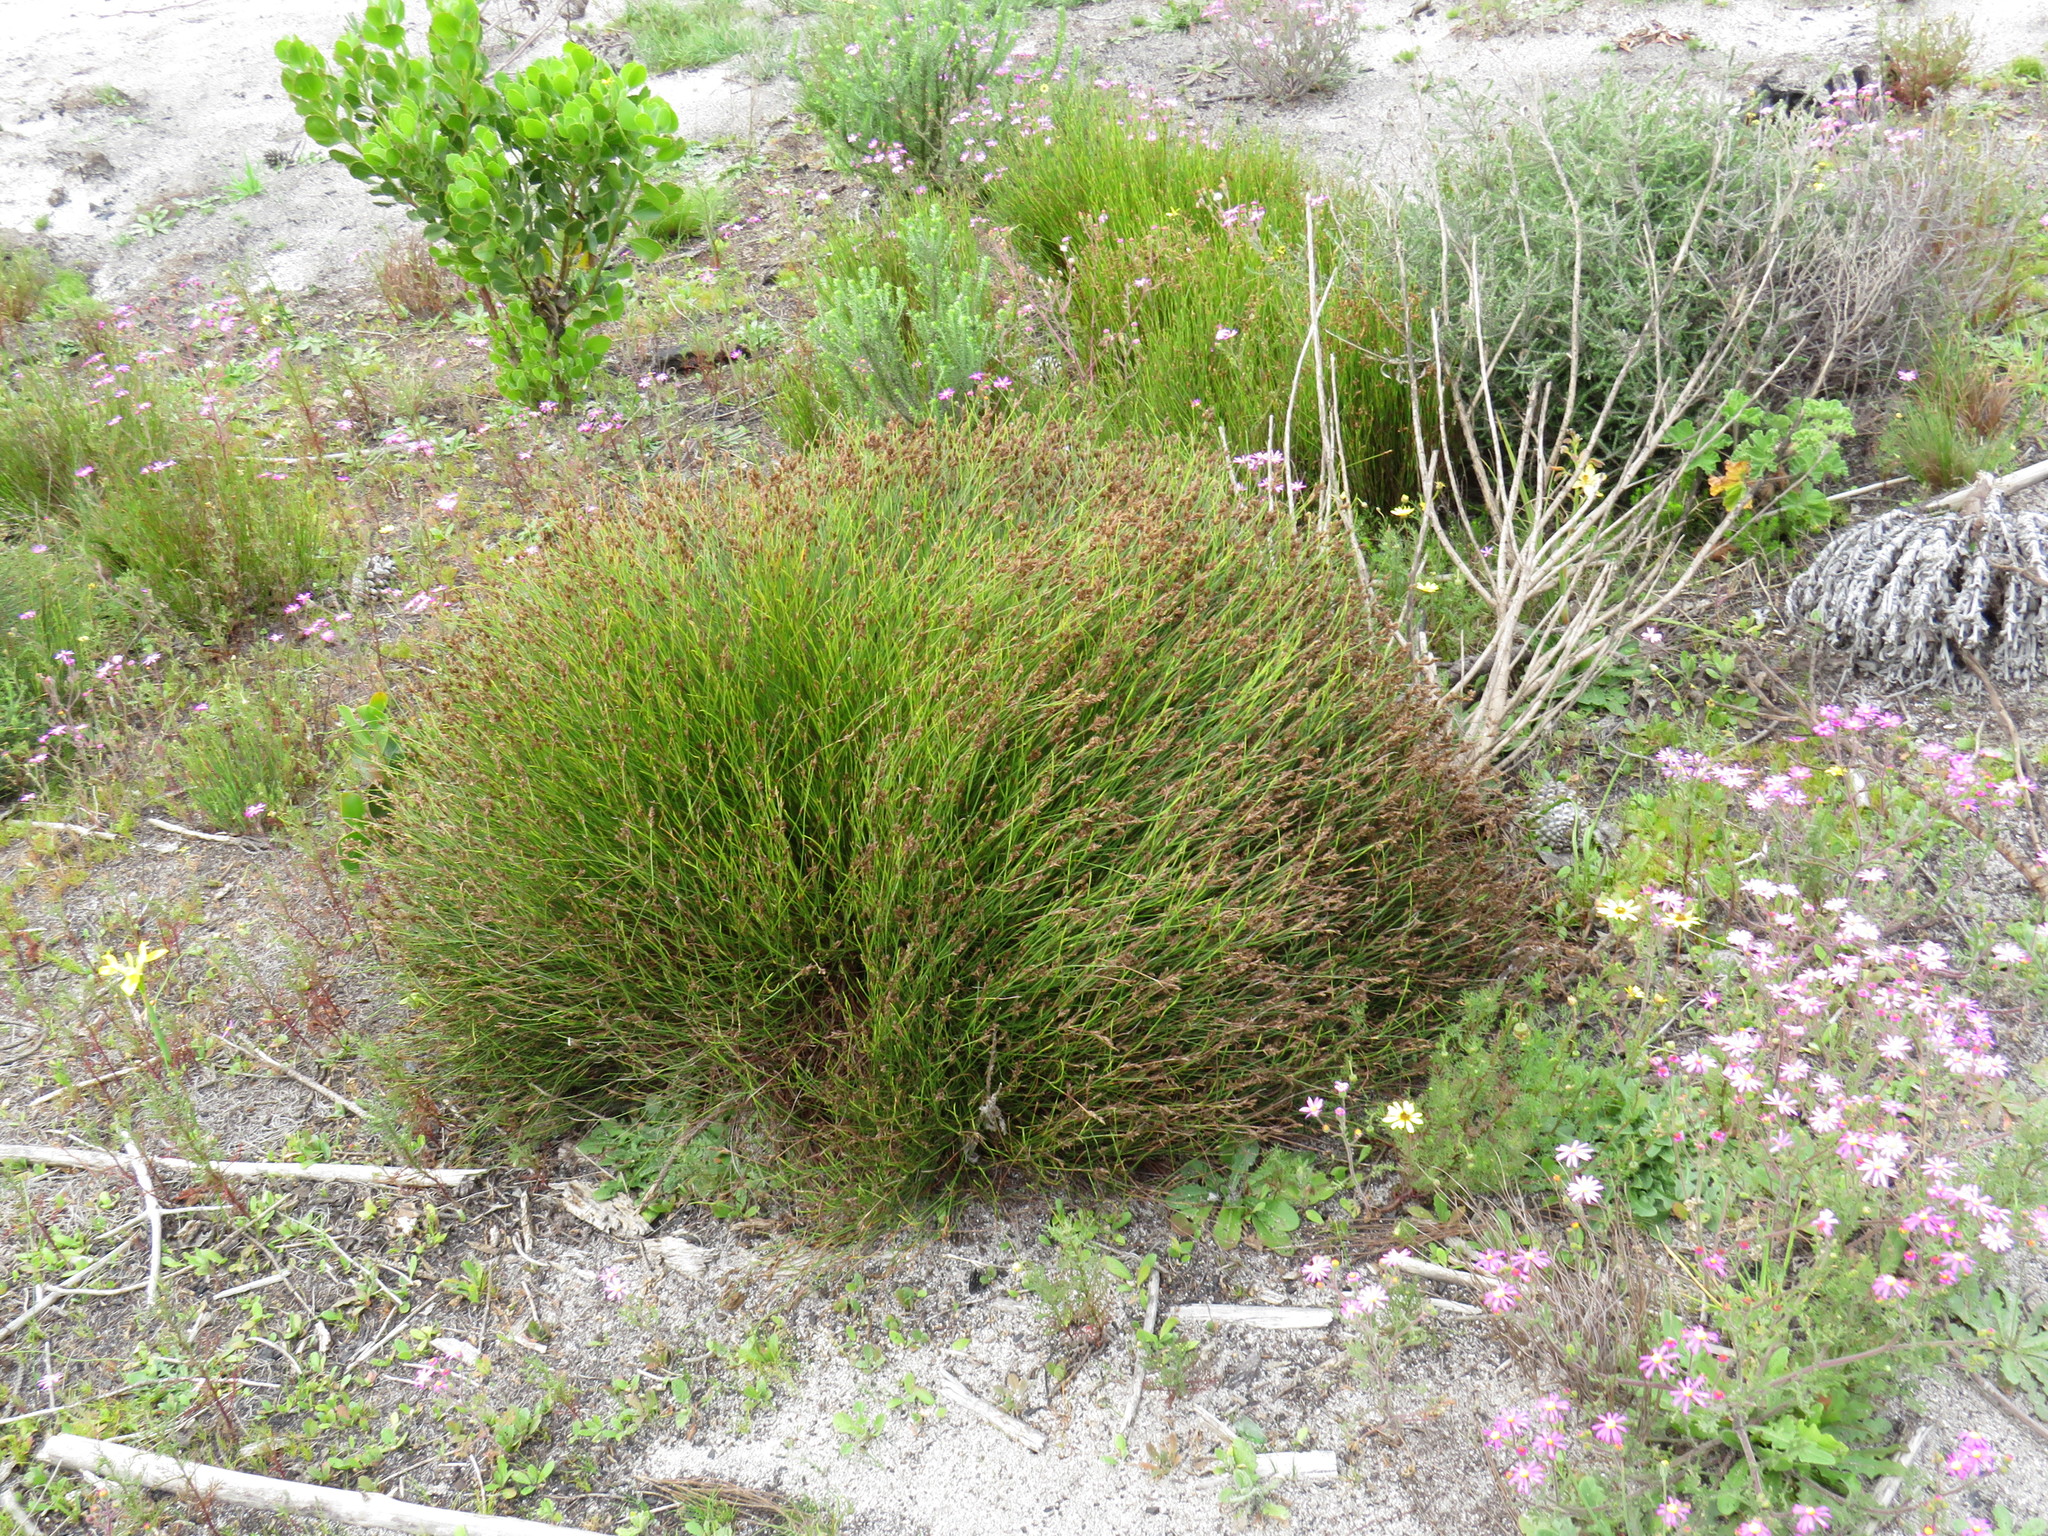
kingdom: Plantae
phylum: Tracheophyta
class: Liliopsida
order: Poales
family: Restionaceae
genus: Restio
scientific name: Restio capensis
